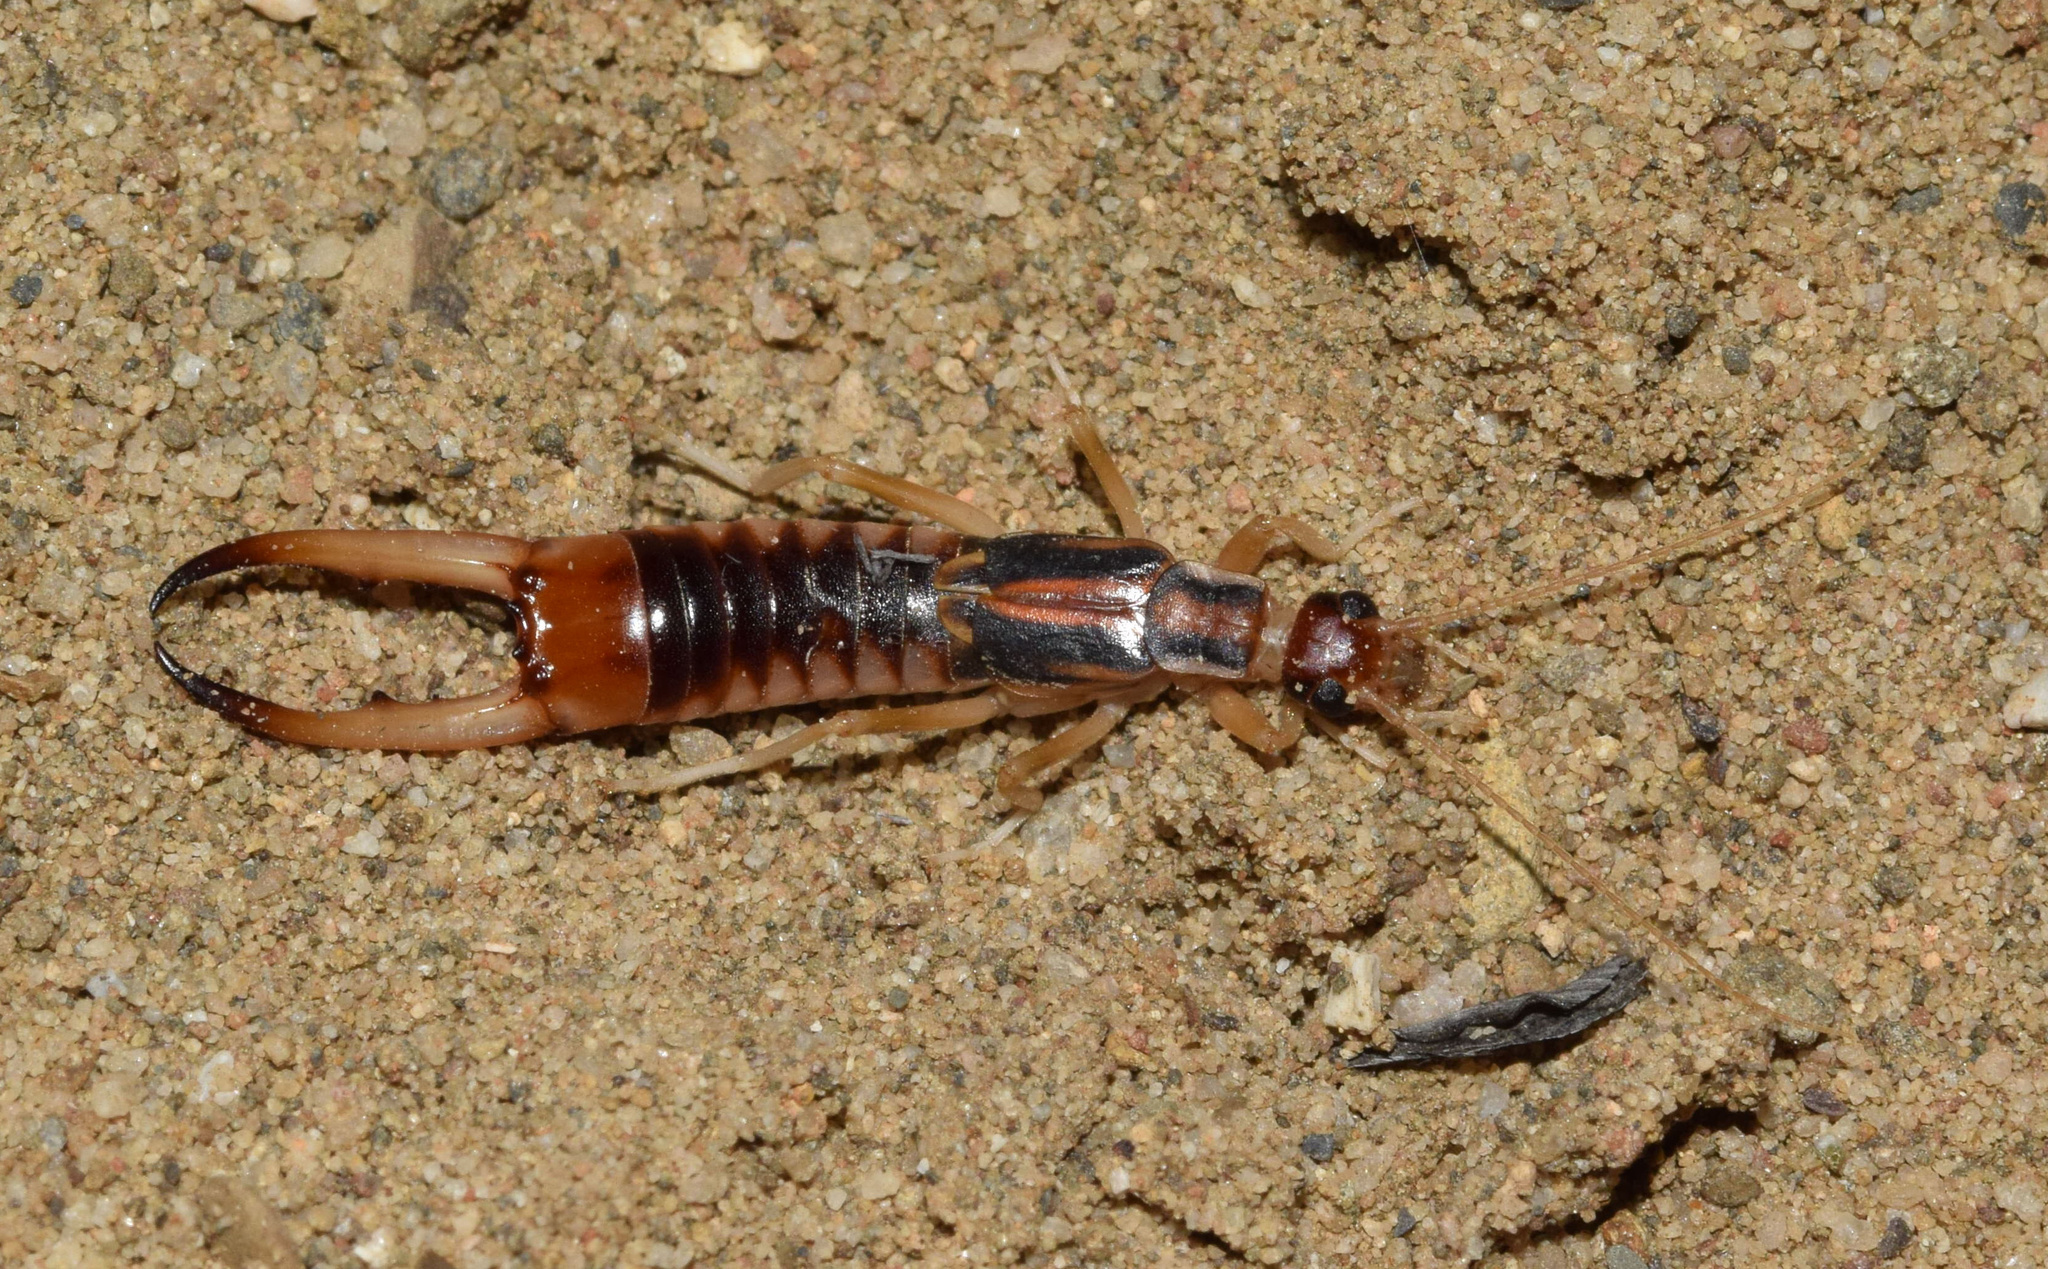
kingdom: Animalia
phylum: Arthropoda
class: Insecta
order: Dermaptera
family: Labiduridae
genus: Labidura
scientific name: Labidura riparia
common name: Striped earwig
